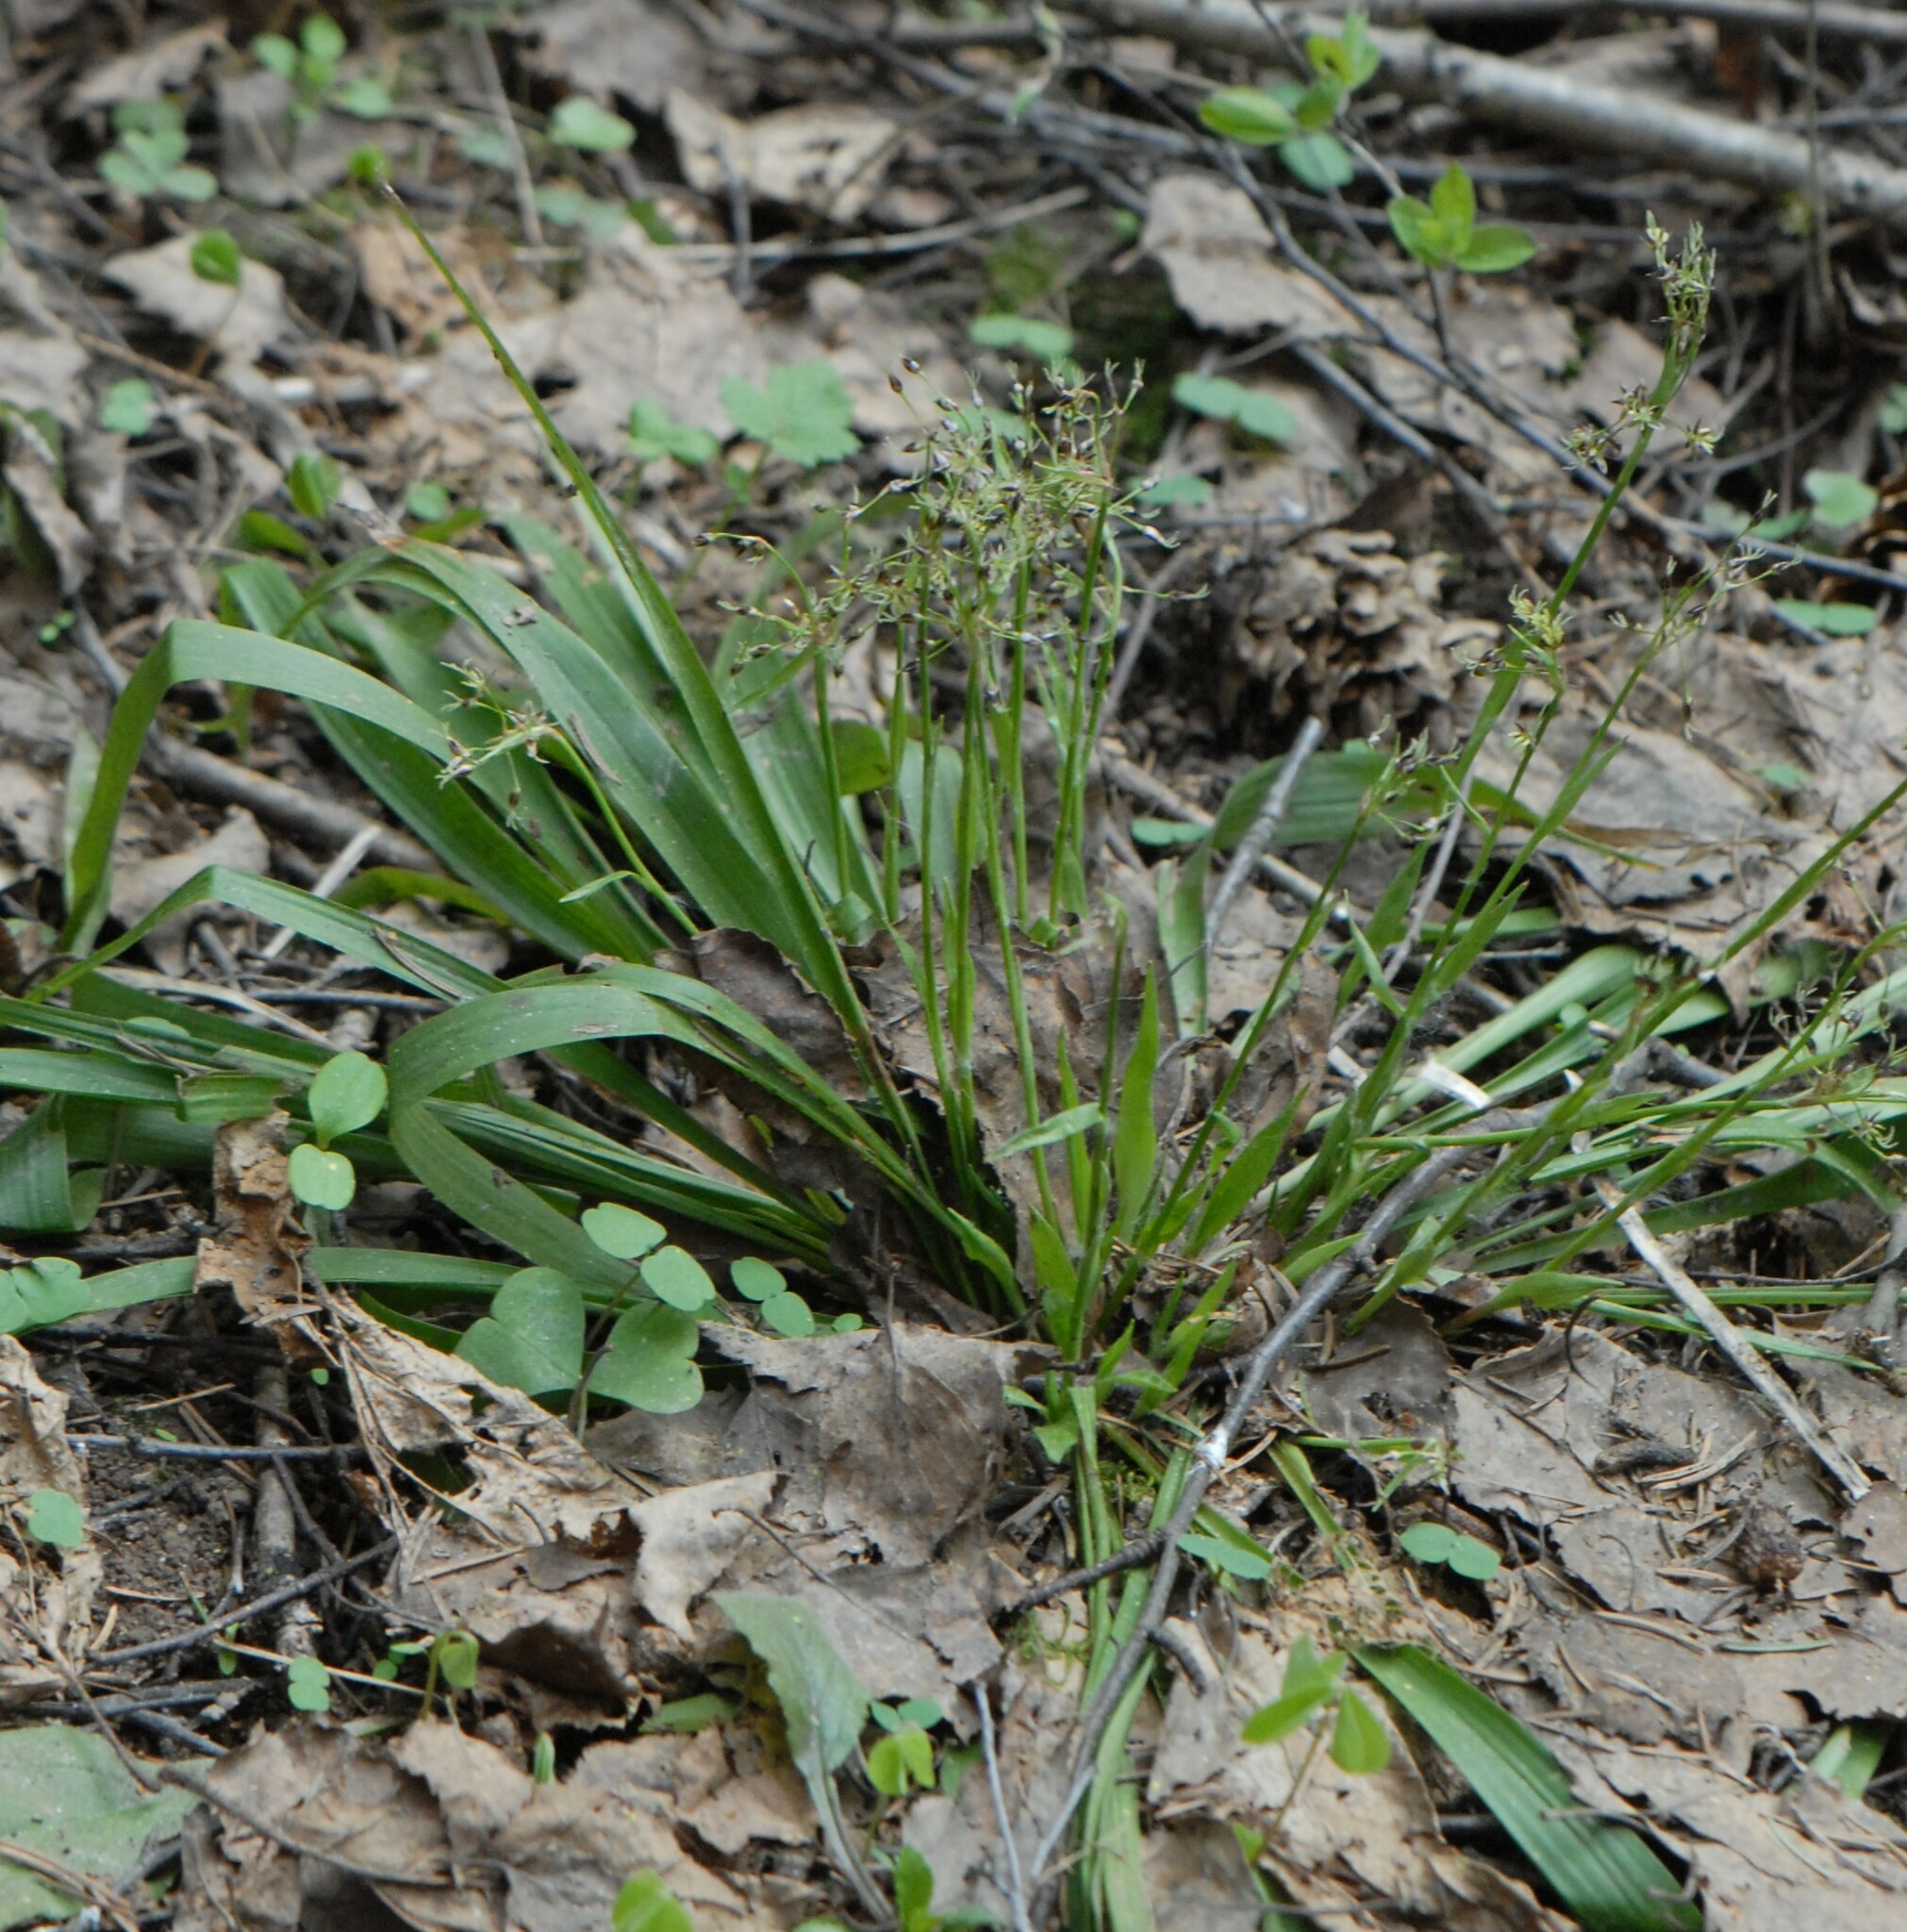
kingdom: Plantae
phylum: Tracheophyta
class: Liliopsida
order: Poales
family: Juncaceae
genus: Luzula
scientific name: Luzula pilosa
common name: Hairy wood-rush
